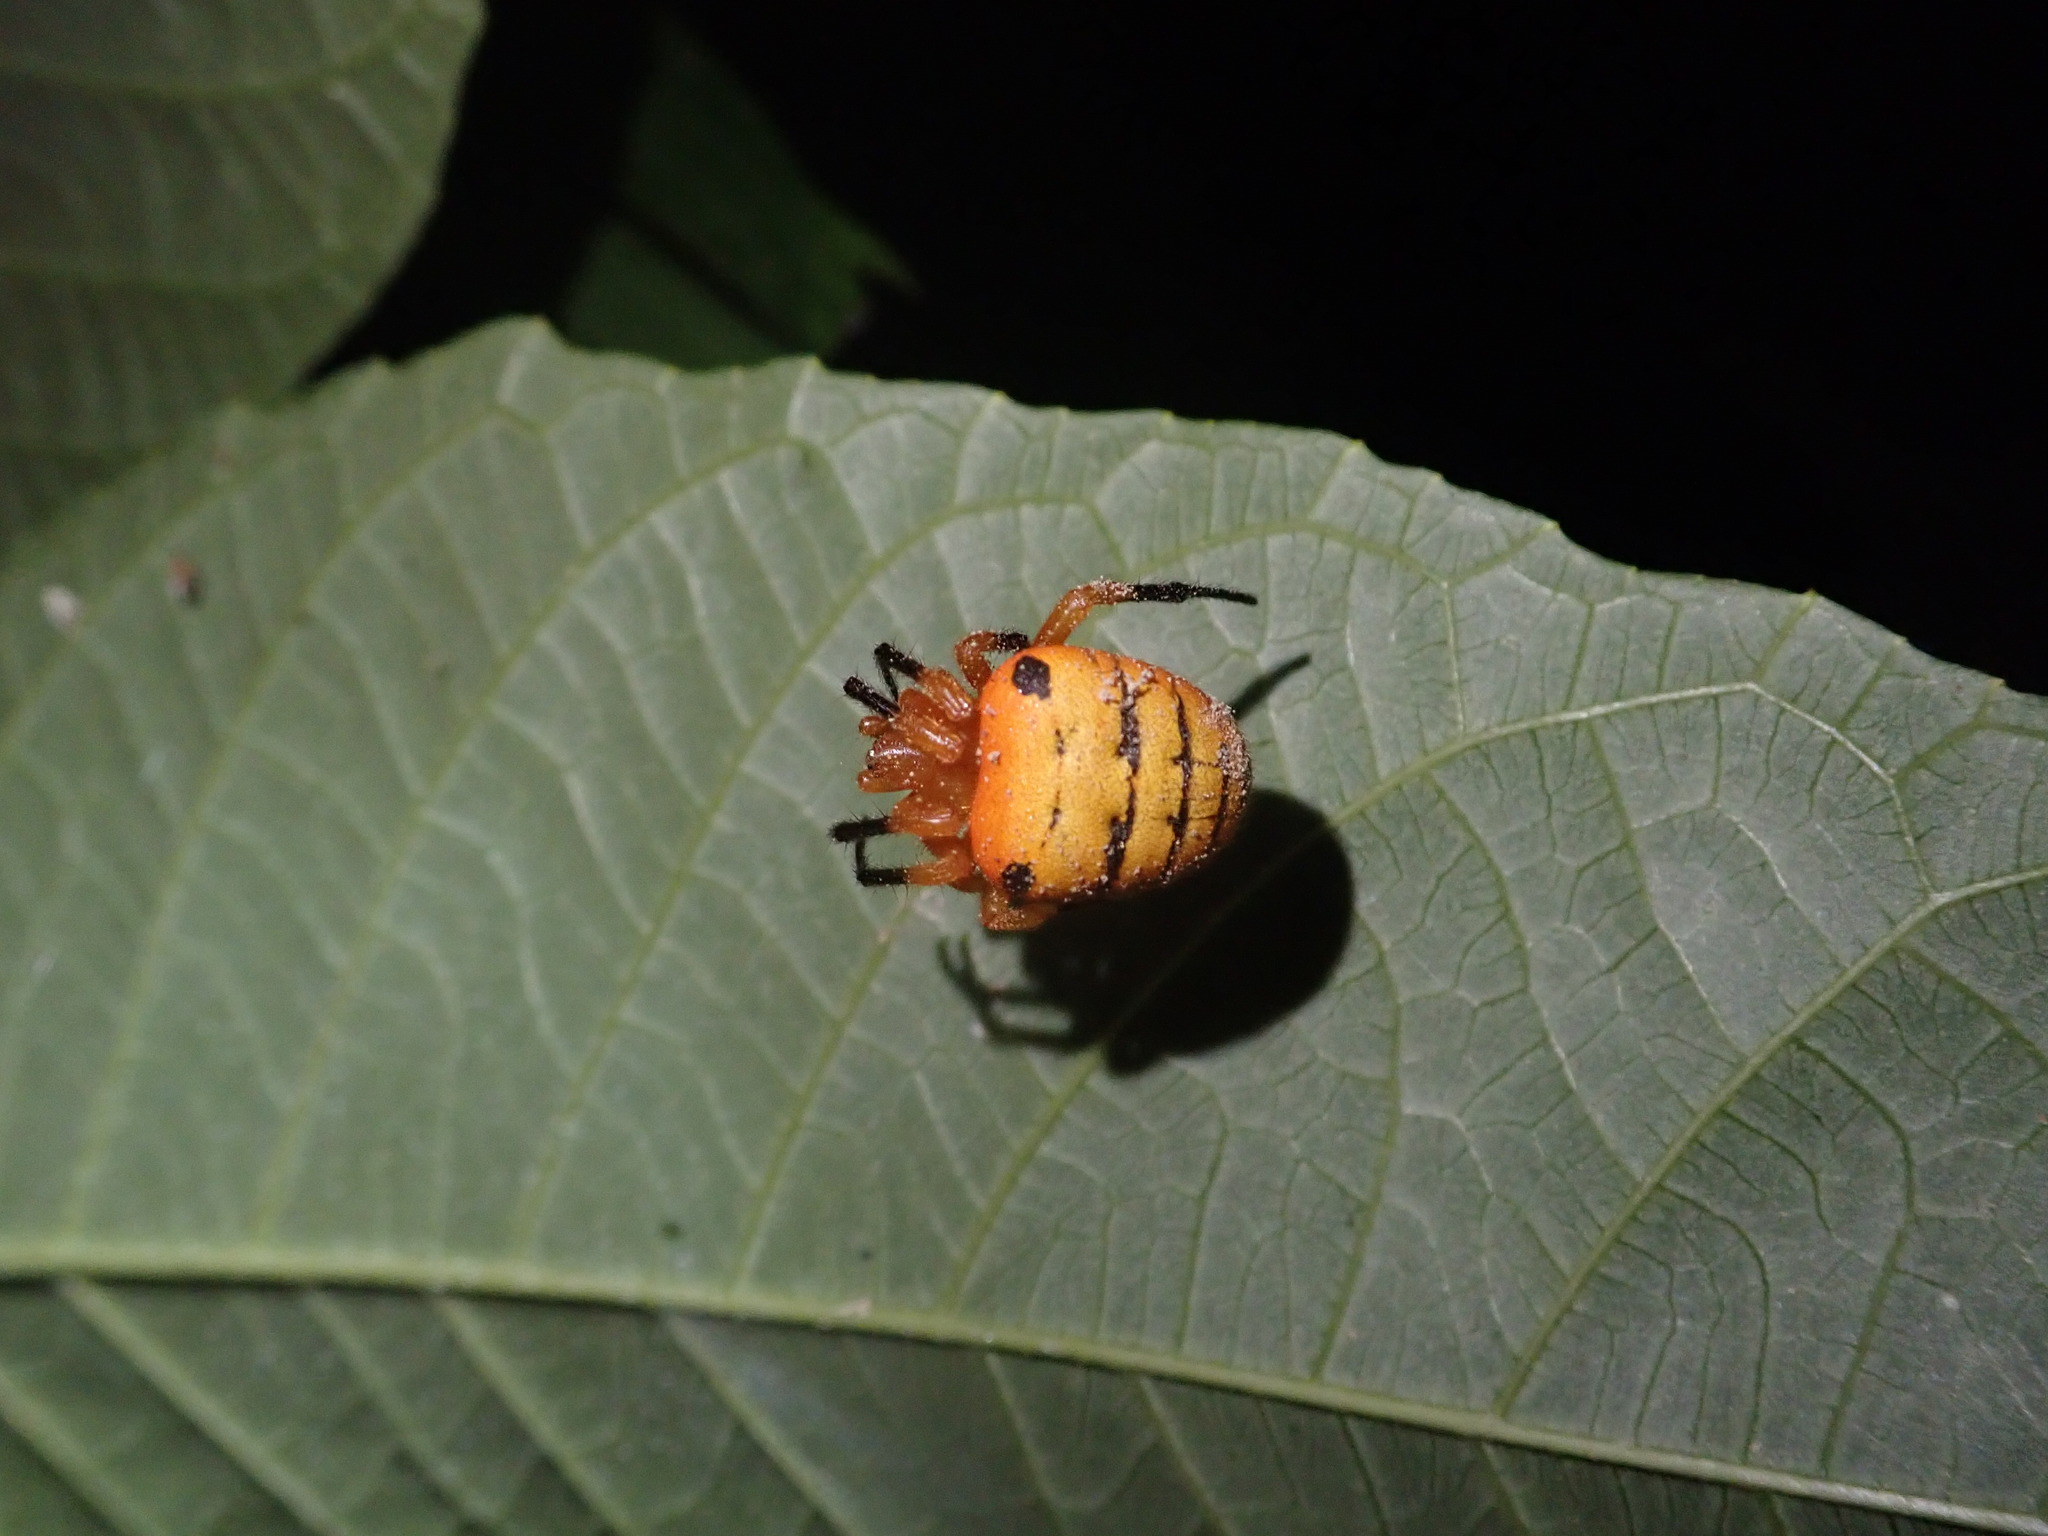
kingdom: Animalia
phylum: Arthropoda
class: Arachnida
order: Araneae
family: Araneidae
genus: Acusilas
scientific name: Acusilas malaccensis
